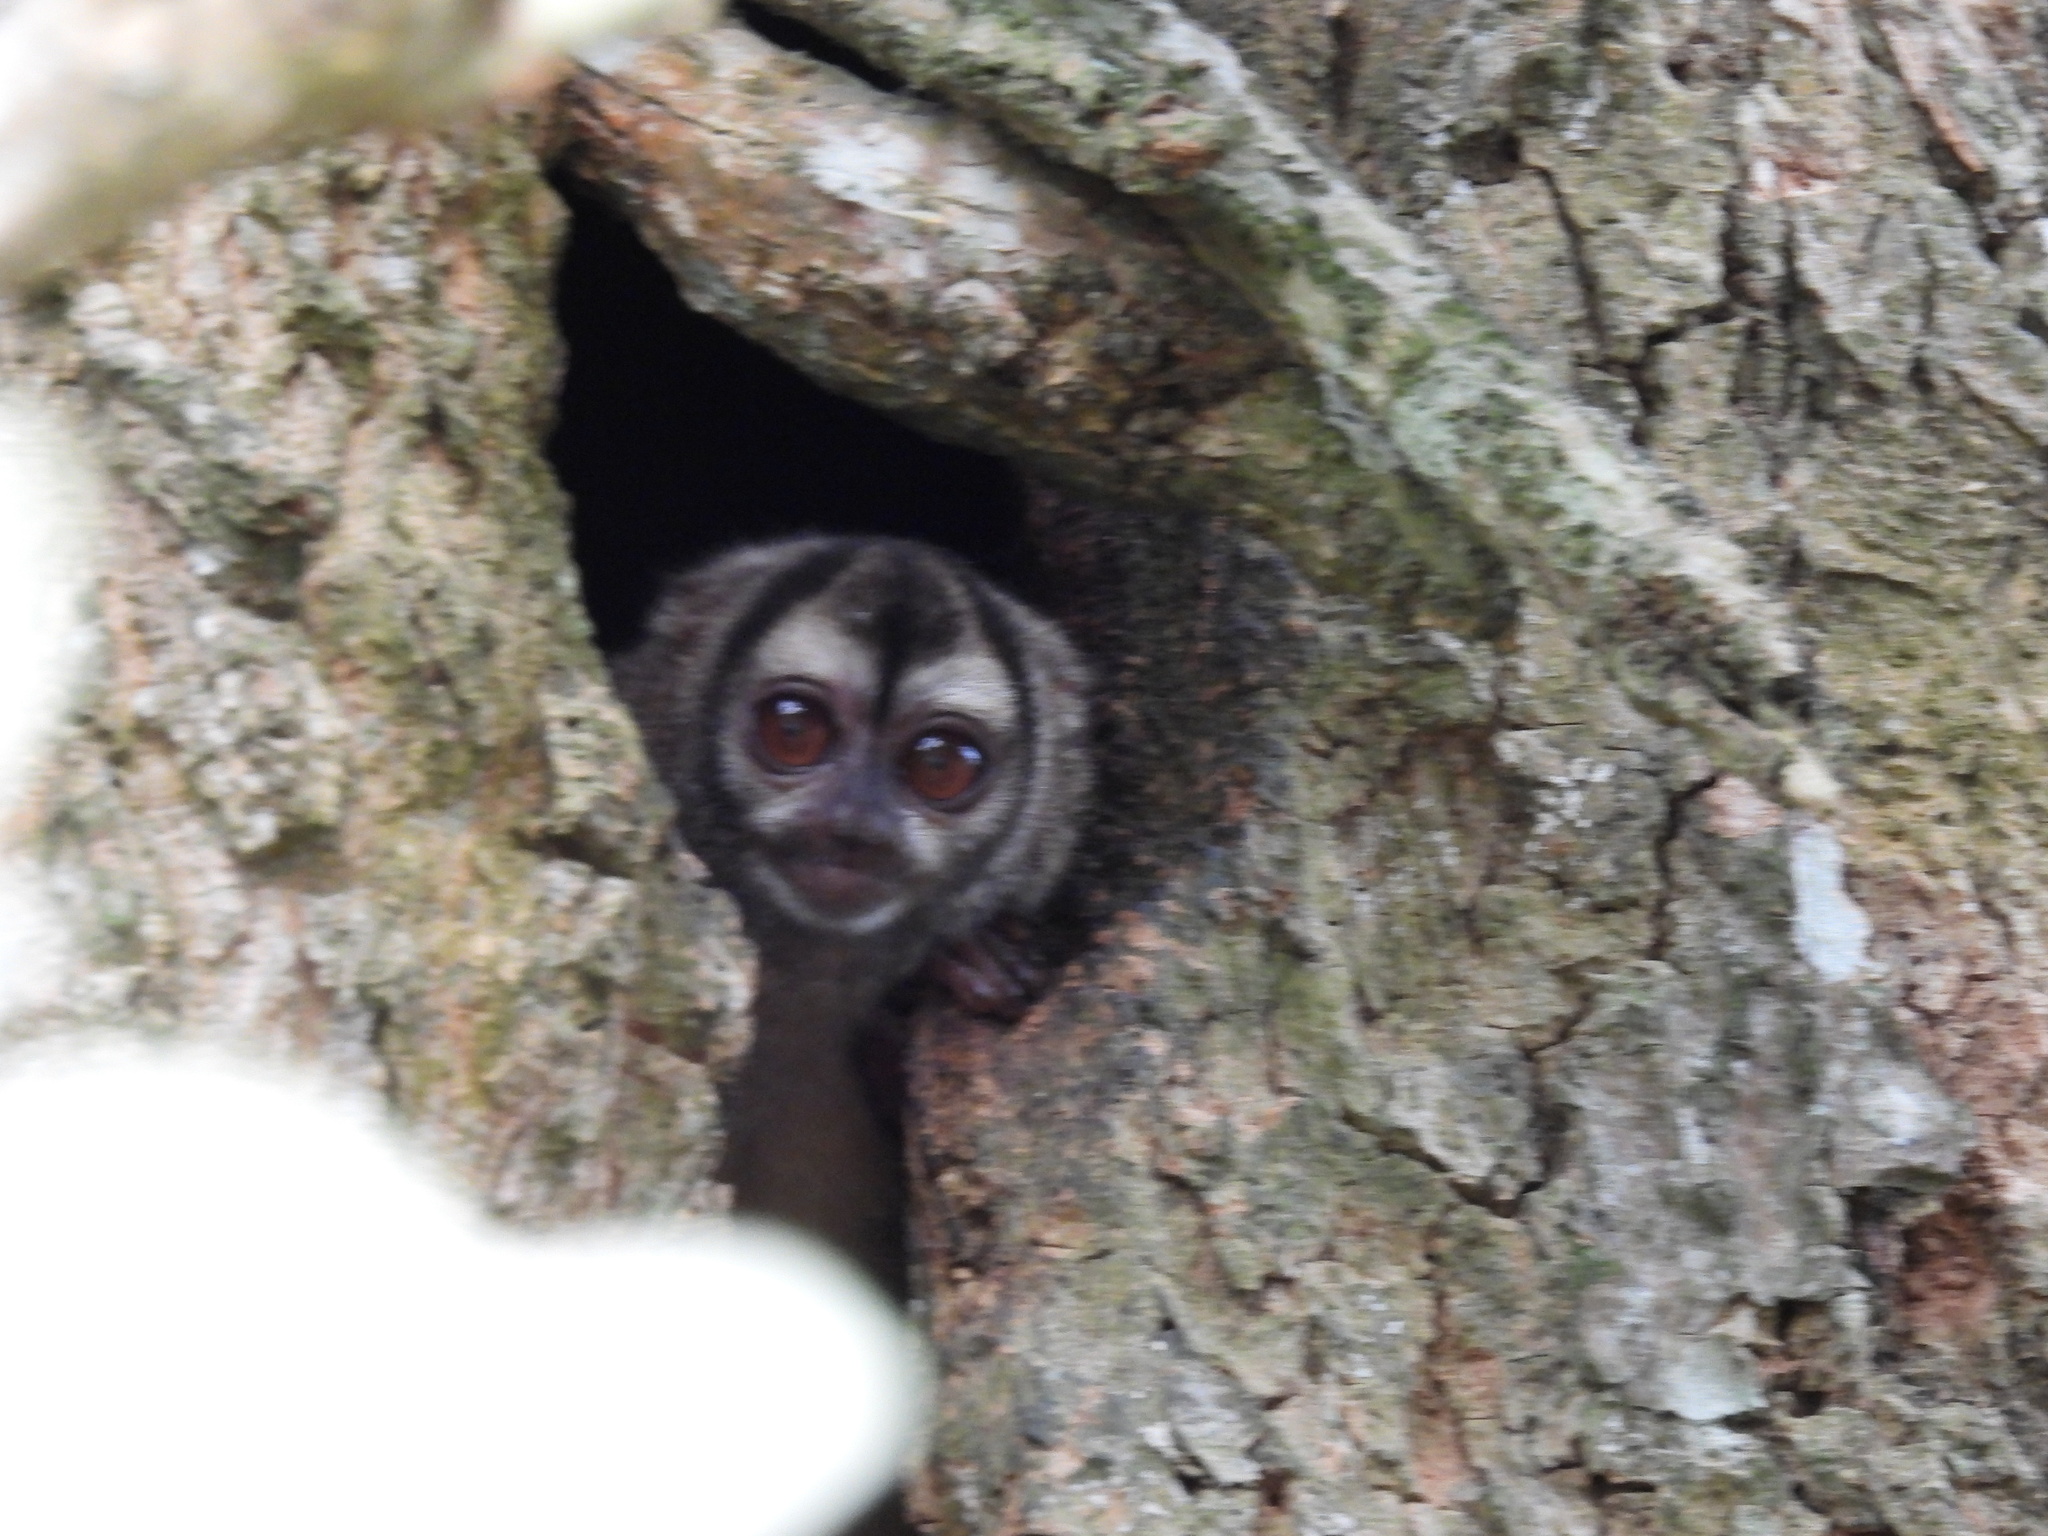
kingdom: Animalia
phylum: Chordata
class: Mammalia
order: Primates
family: Aotidae
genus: Aotus
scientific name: Aotus zonalis
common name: Panamanian night monkey
